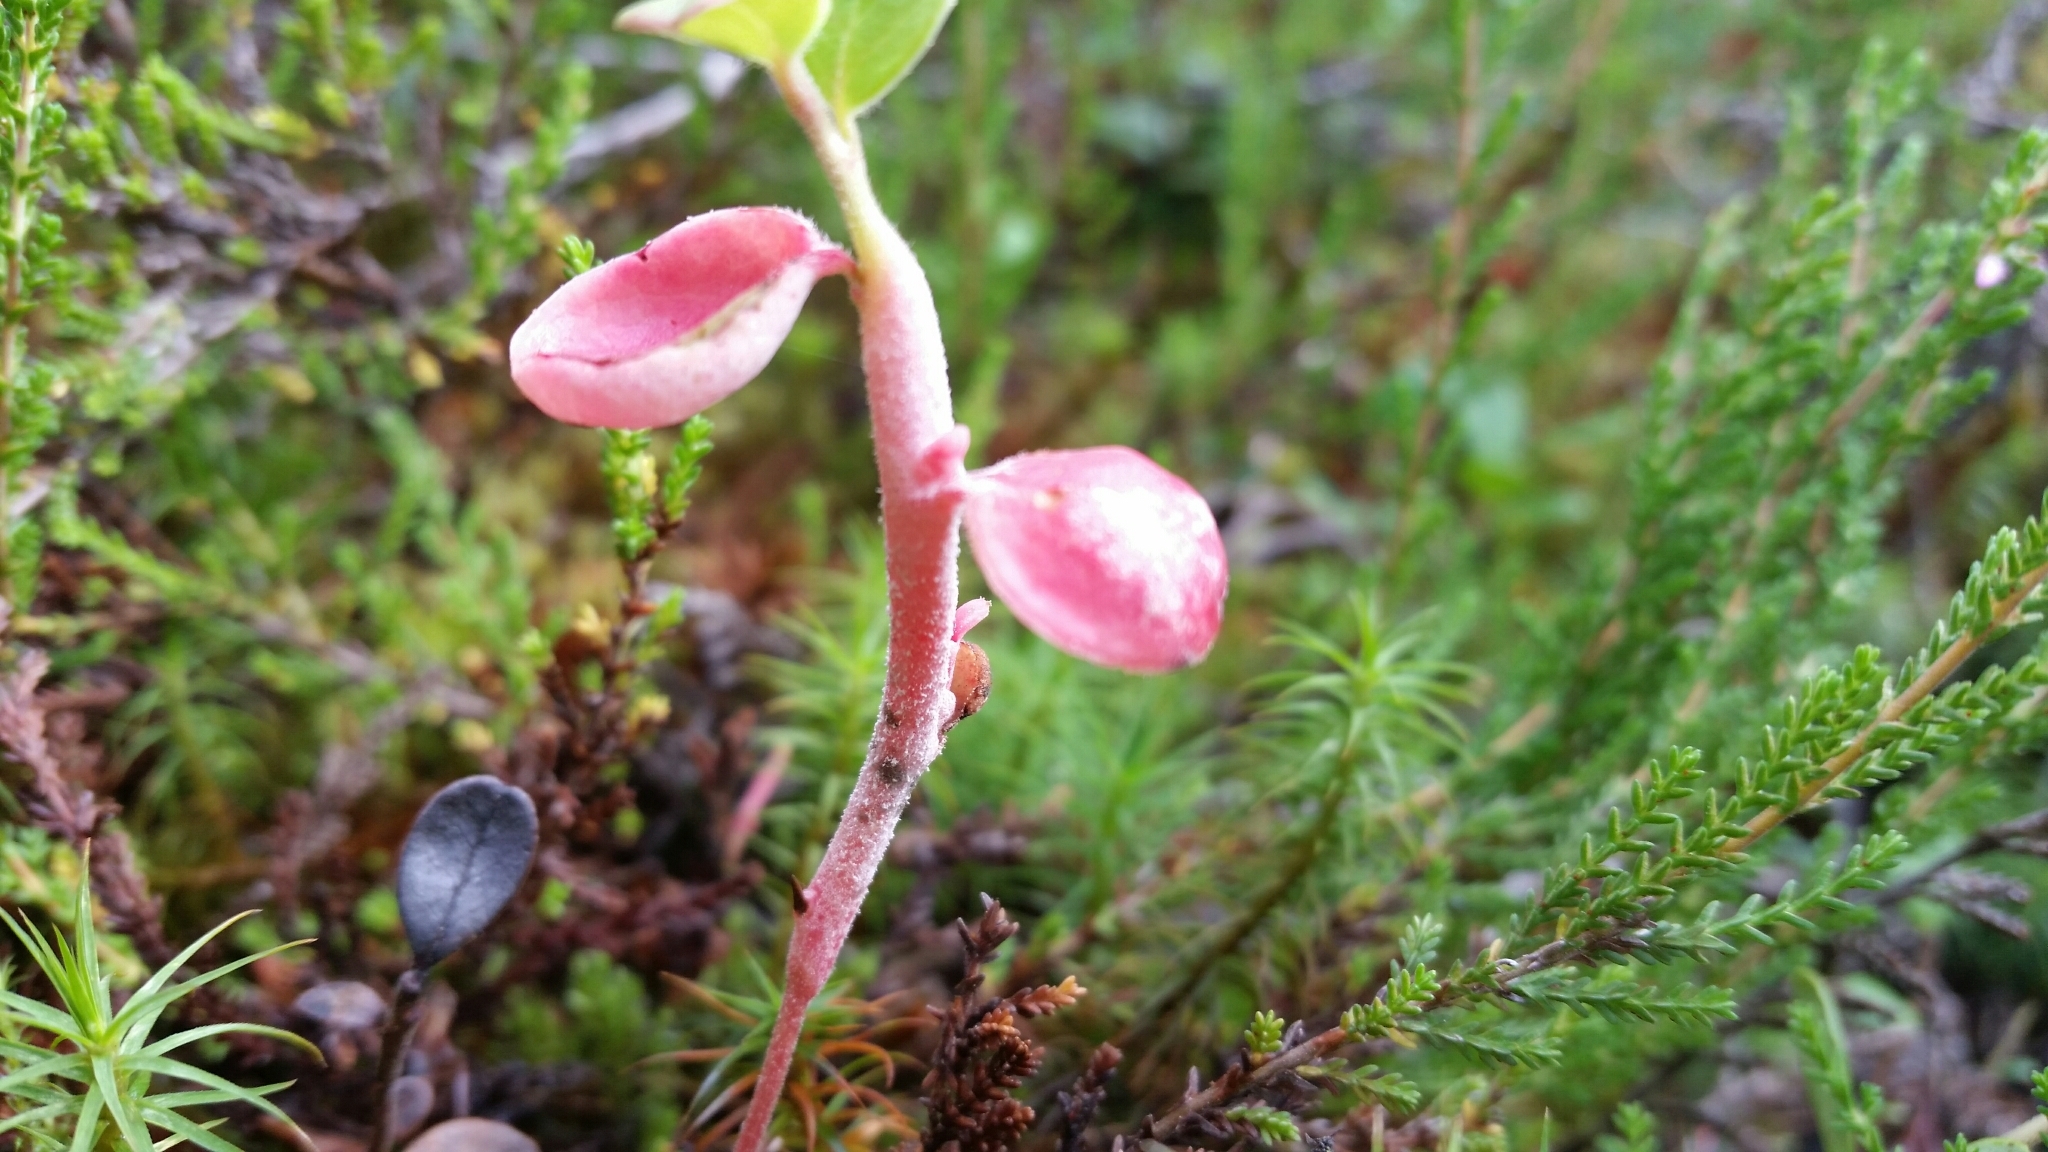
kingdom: Fungi
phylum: Basidiomycota
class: Exobasidiomycetes
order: Exobasidiales
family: Exobasidiaceae
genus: Exobasidium
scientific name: Exobasidium vaccinii
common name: Cowberry redleaf
